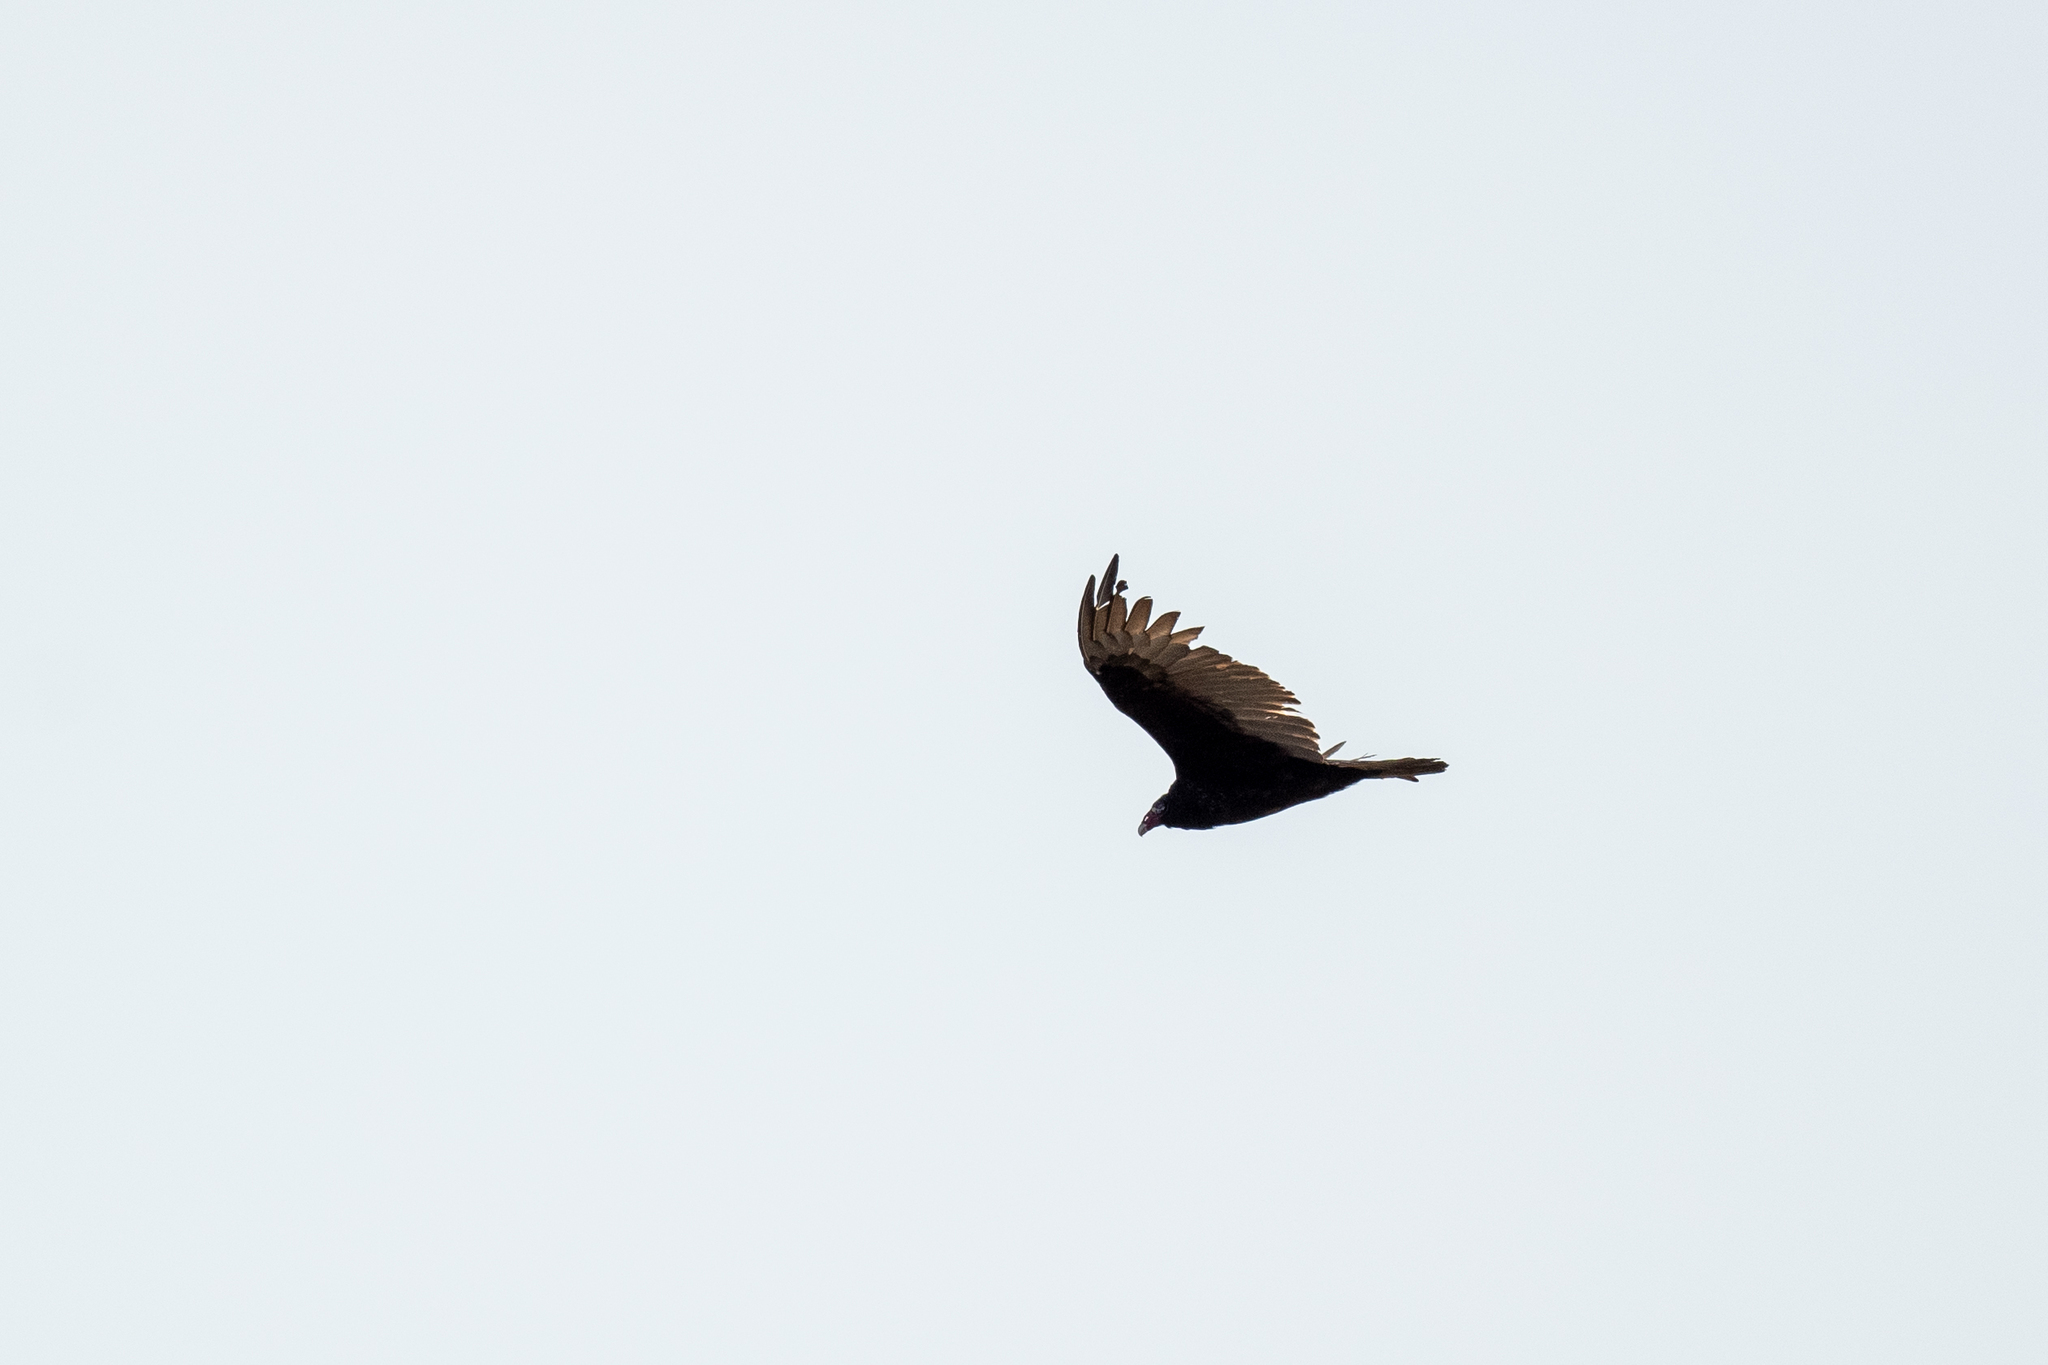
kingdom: Animalia
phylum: Chordata
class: Aves
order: Accipitriformes
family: Cathartidae
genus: Cathartes
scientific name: Cathartes aura
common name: Turkey vulture
